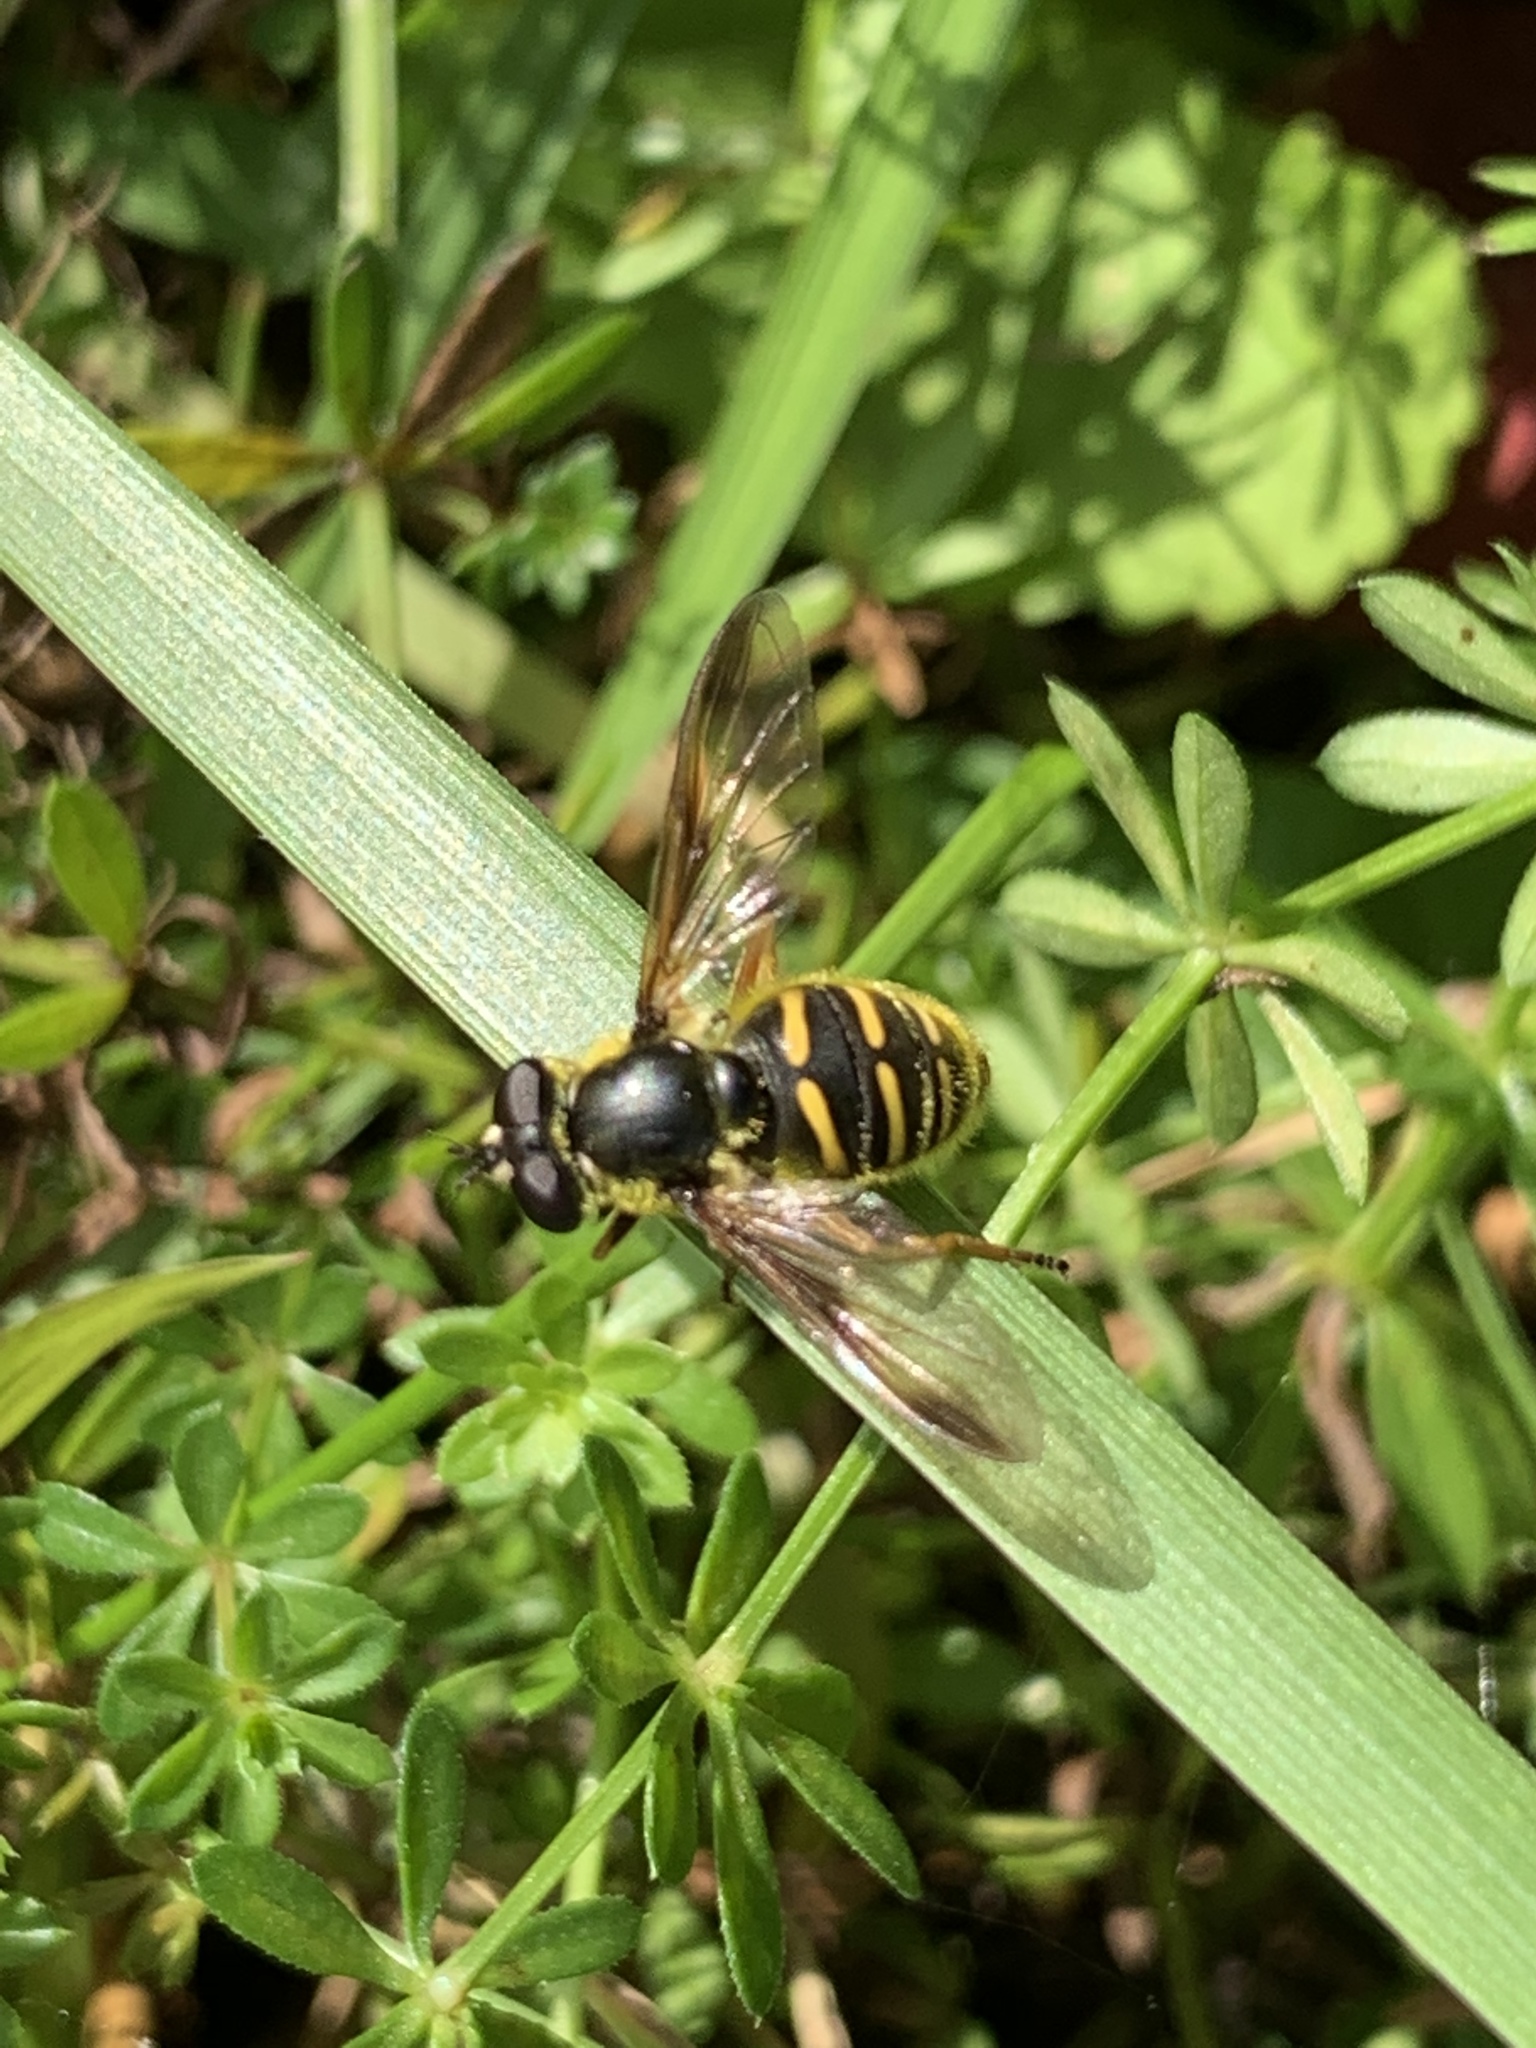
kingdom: Animalia
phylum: Arthropoda
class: Insecta
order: Diptera
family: Syrphidae
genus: Sericomyia
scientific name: Sericomyia chrysotoxoides
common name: Oblique-banded pond fly
